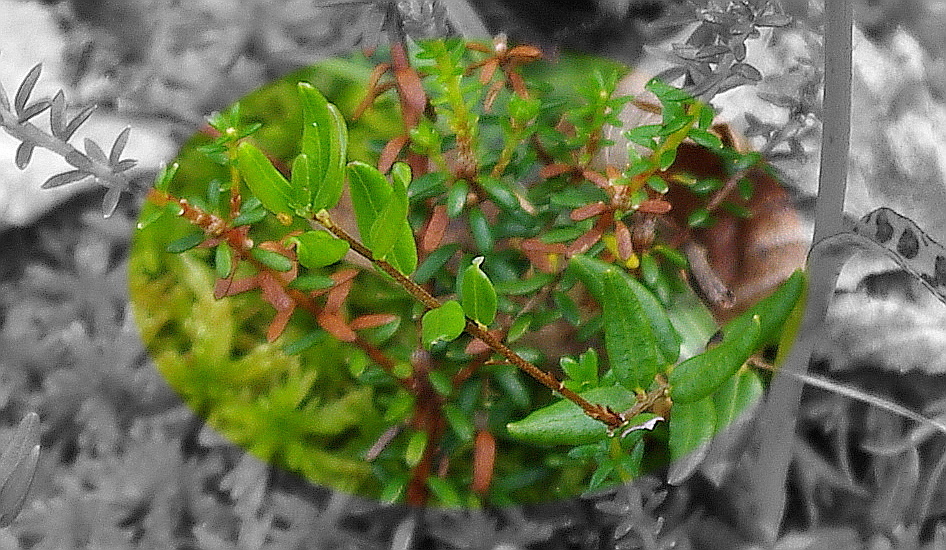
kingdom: Plantae
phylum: Tracheophyta
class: Magnoliopsida
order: Ericales
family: Ericaceae
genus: Vaccinium
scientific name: Vaccinium oxycoccos
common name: Cranberry
